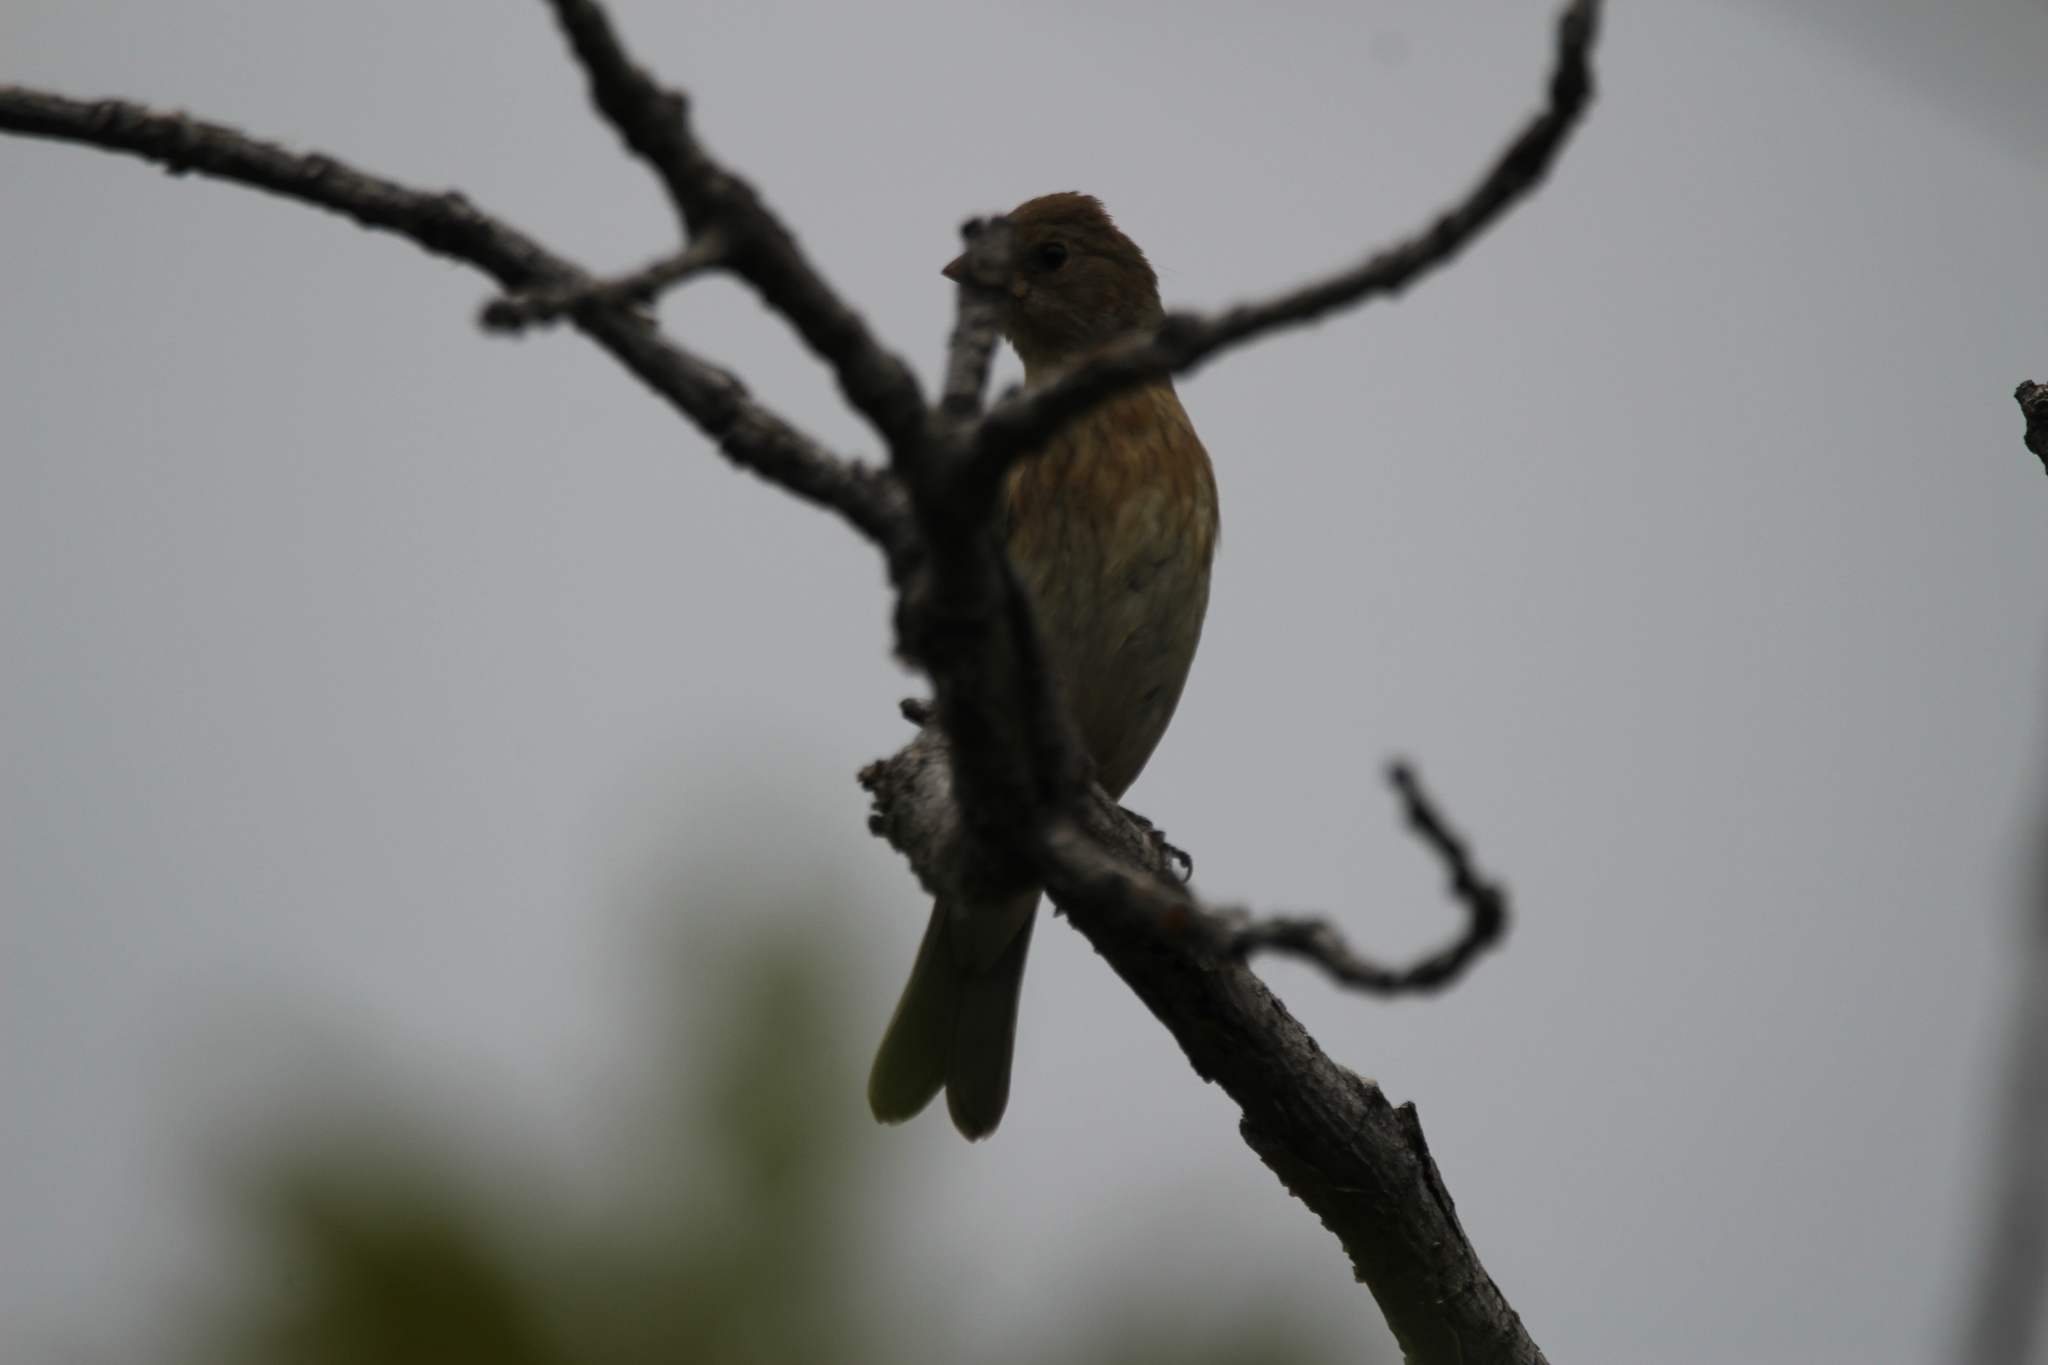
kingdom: Animalia
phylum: Chordata
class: Aves
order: Passeriformes
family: Cardinalidae
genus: Passerina
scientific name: Passerina amoena
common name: Lazuli bunting
